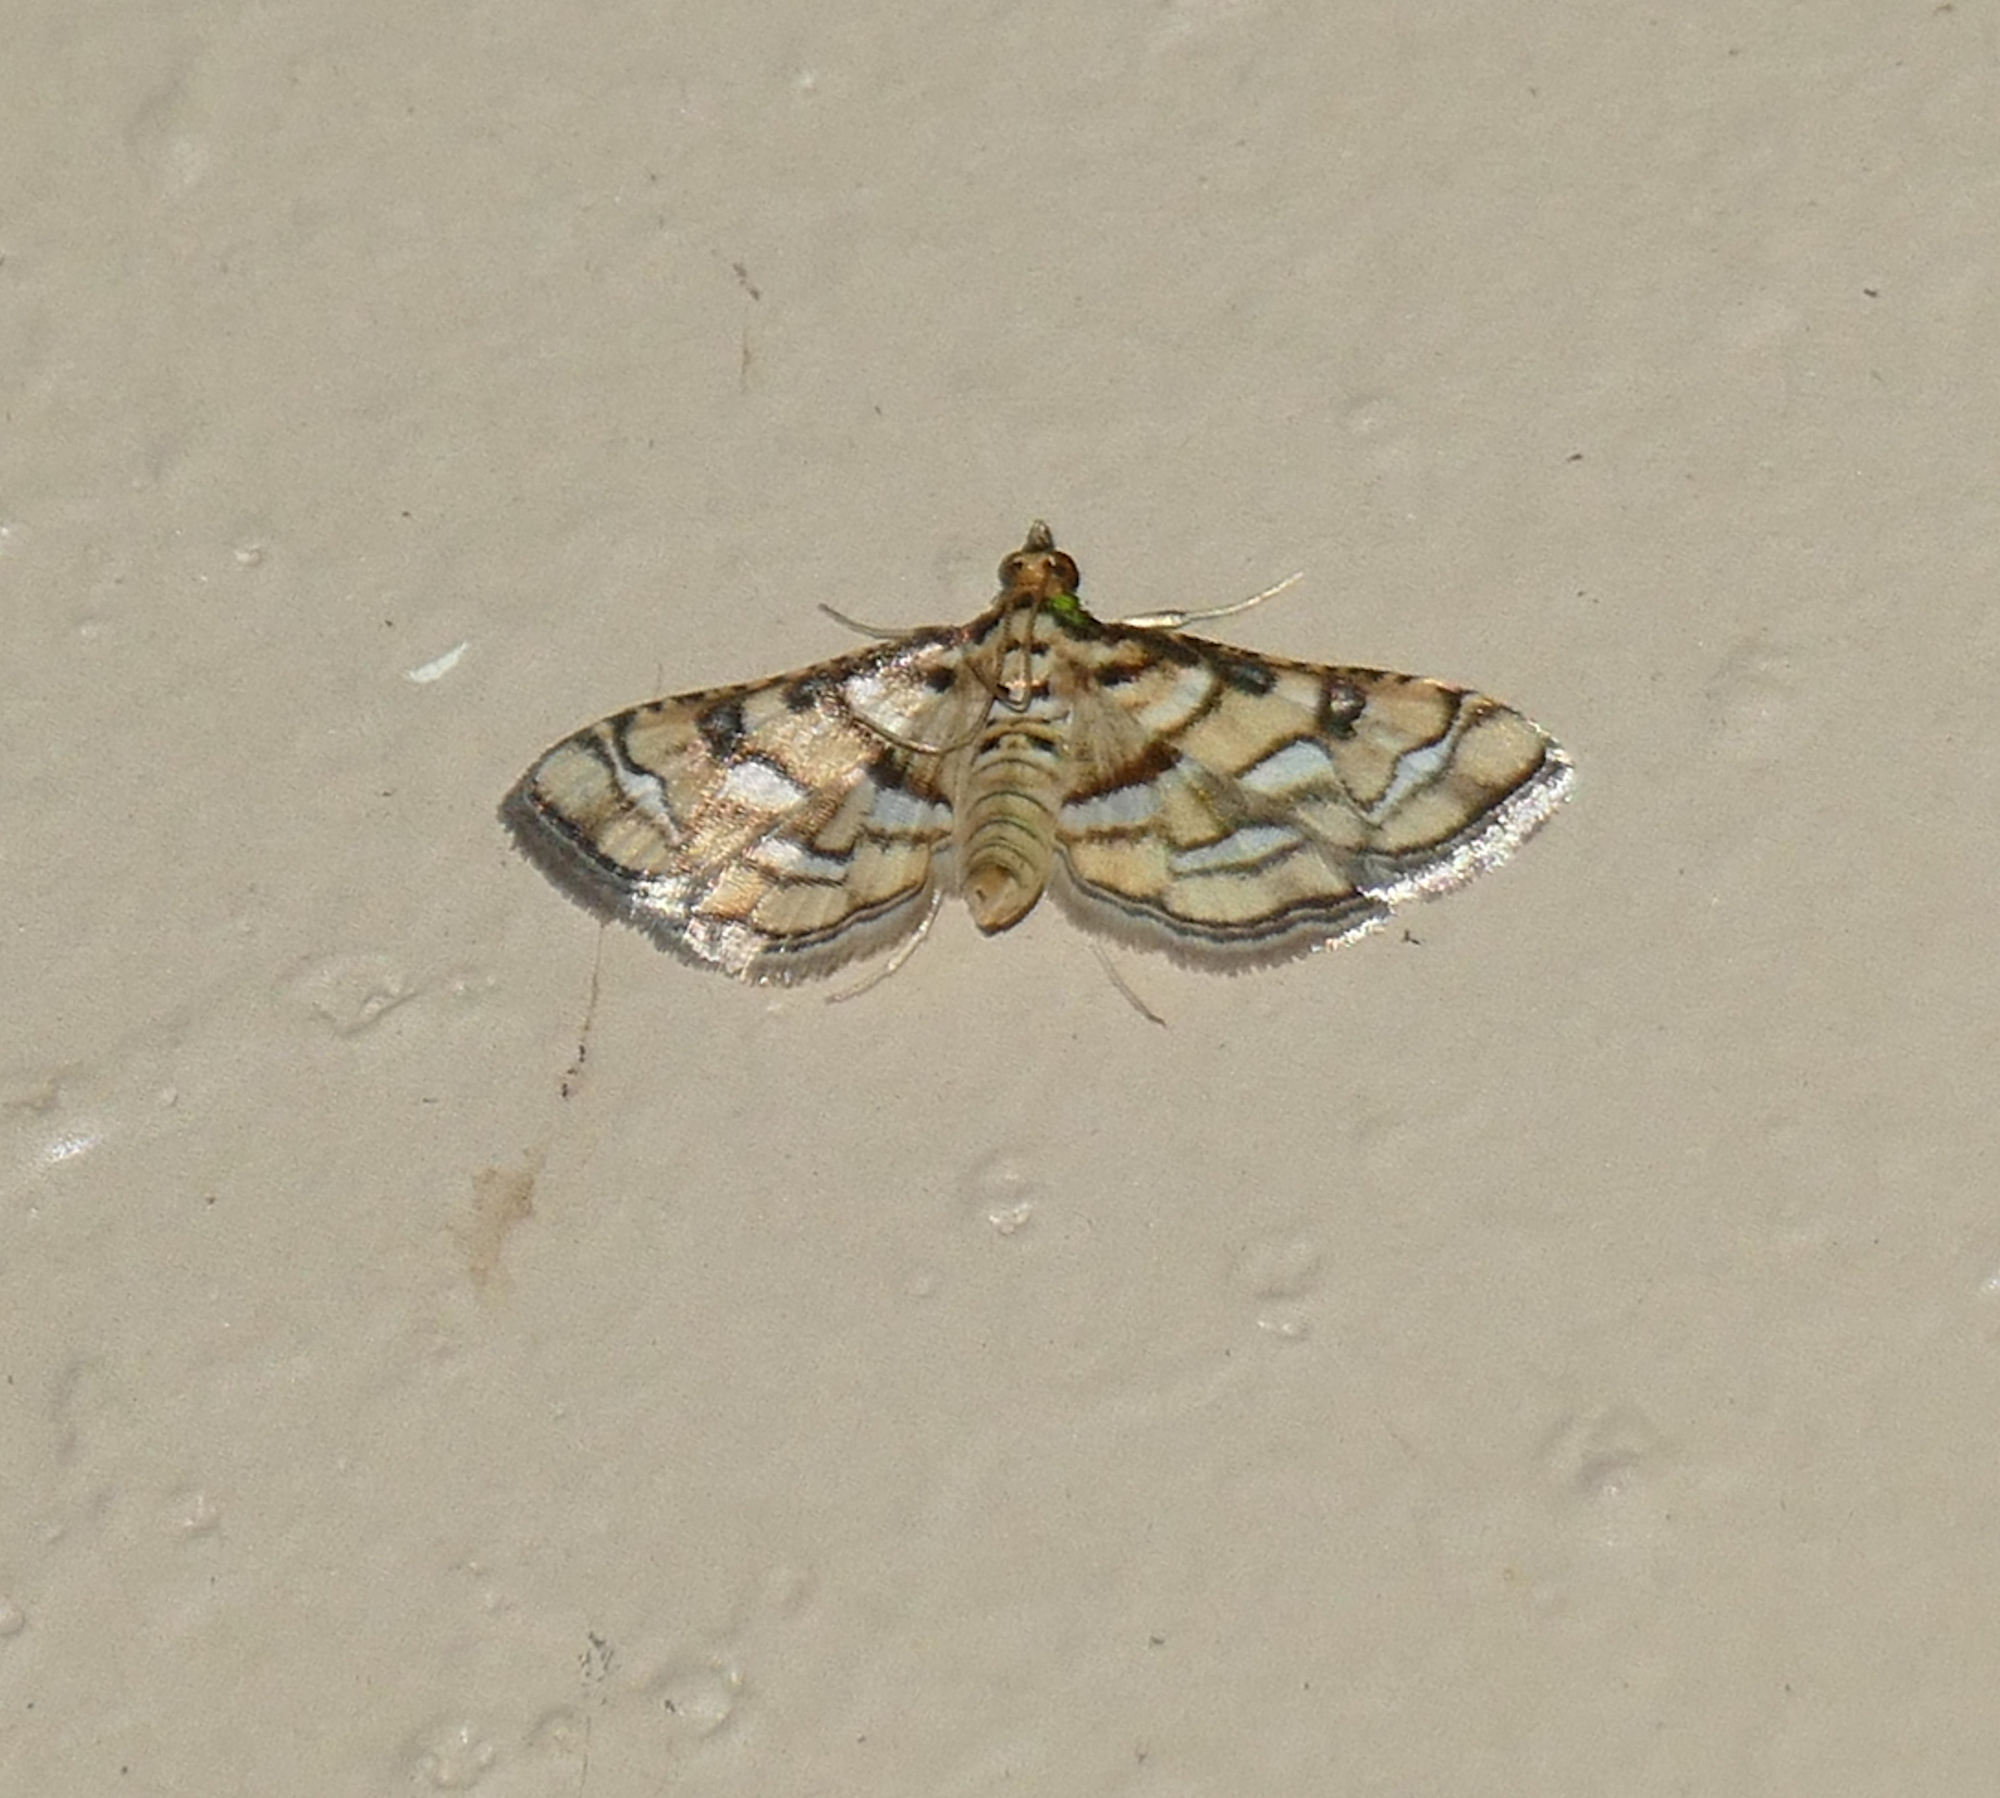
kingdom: Animalia
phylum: Arthropoda
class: Insecta
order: Lepidoptera
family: Crambidae
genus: Hileithia
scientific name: Hileithia magualis
